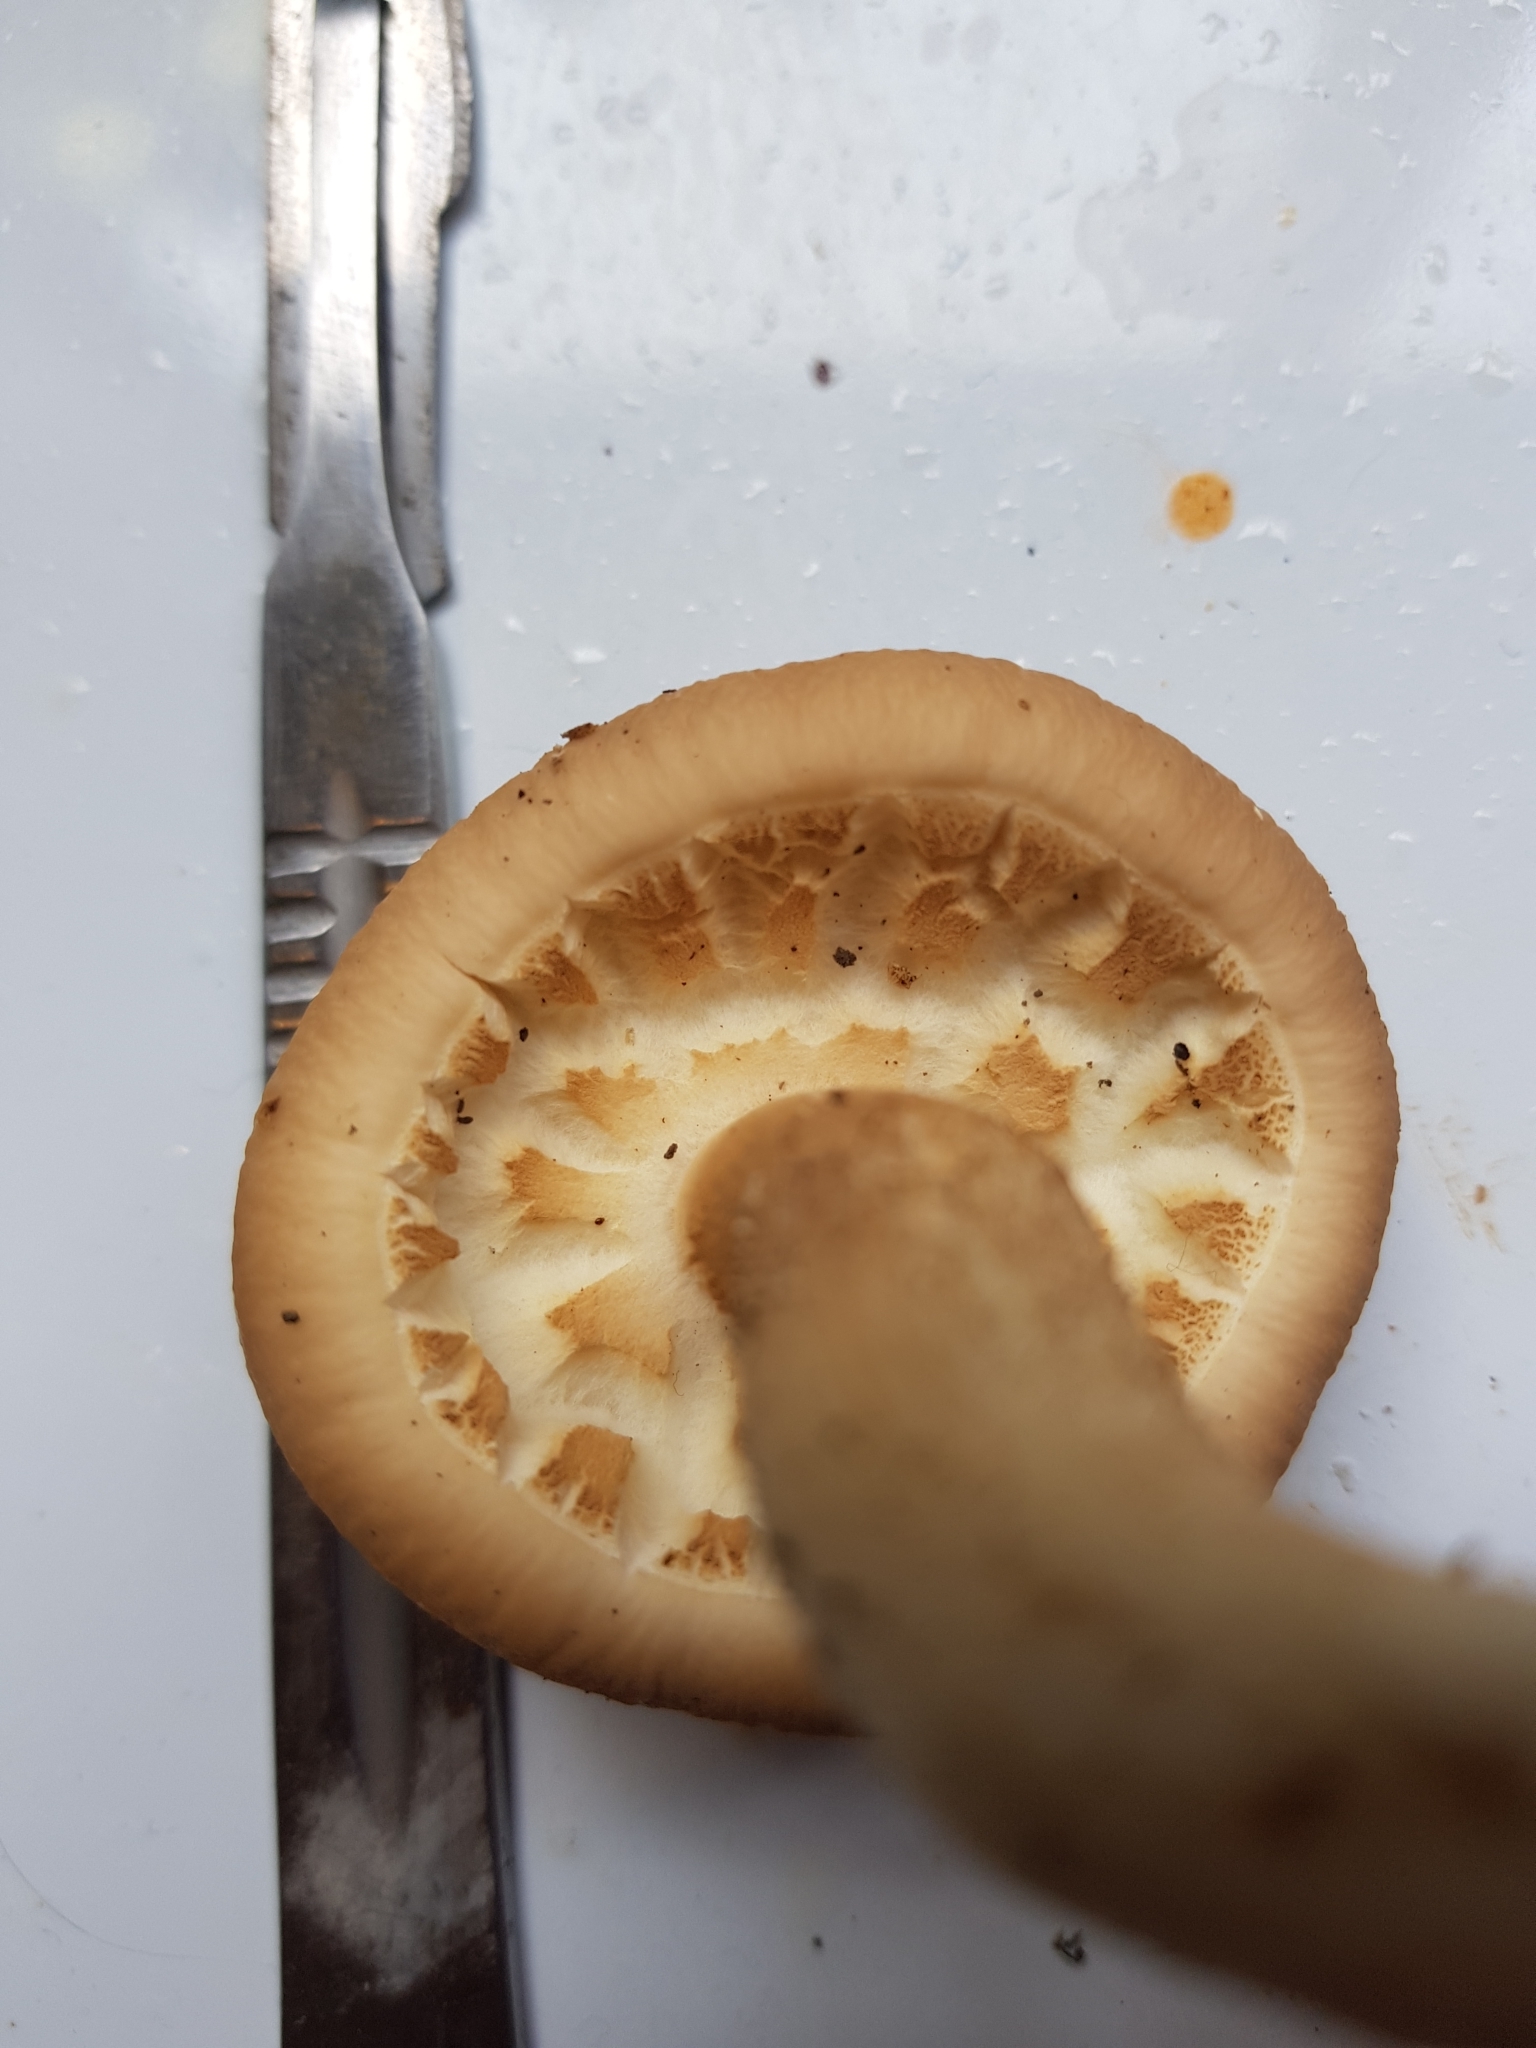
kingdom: Fungi
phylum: Basidiomycota
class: Agaricomycetes
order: Agaricales
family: Tubariaceae
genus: Cyclocybe
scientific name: Cyclocybe parasitica
